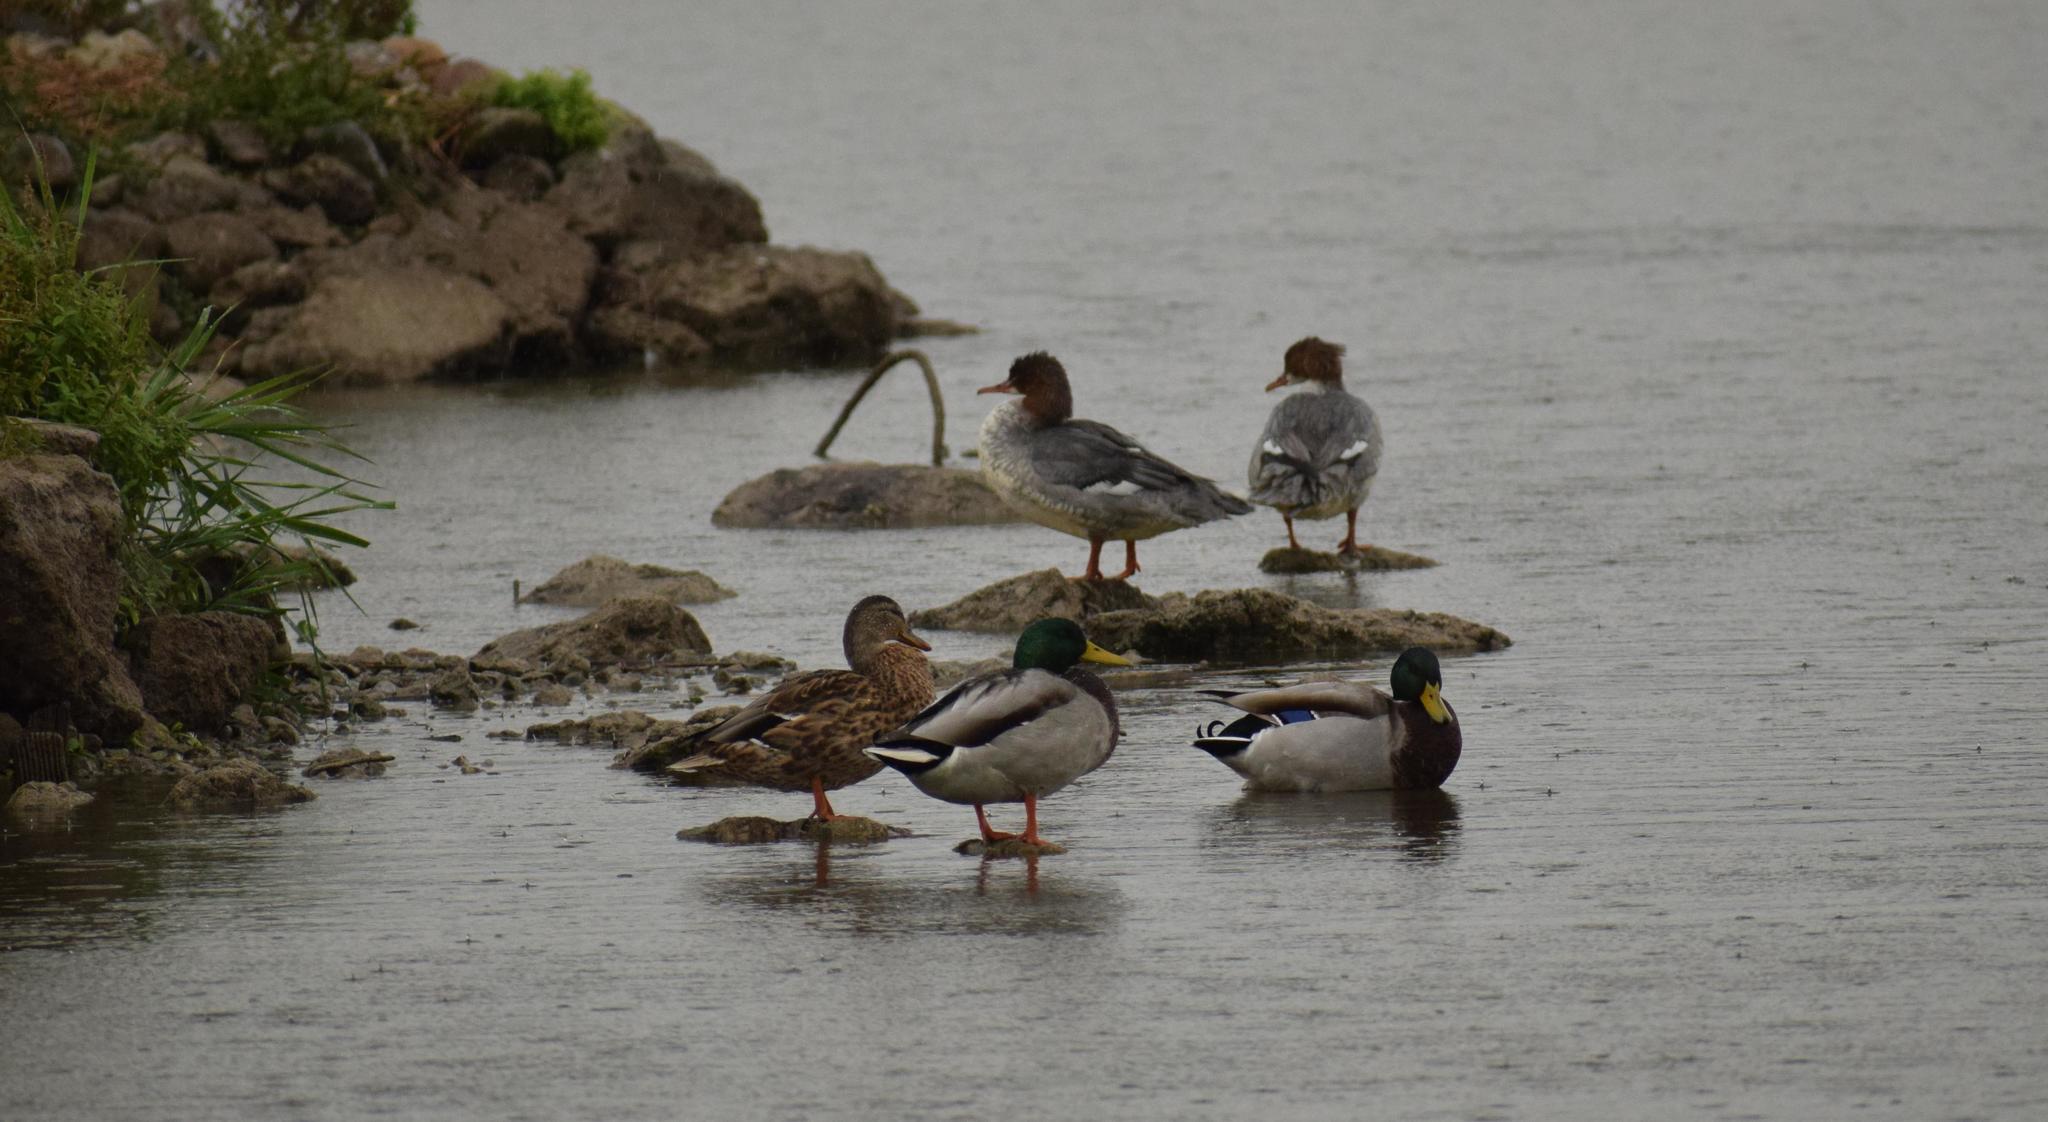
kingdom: Animalia
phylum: Chordata
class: Aves
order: Anseriformes
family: Anatidae
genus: Mergus
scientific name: Mergus merganser
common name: Common merganser
